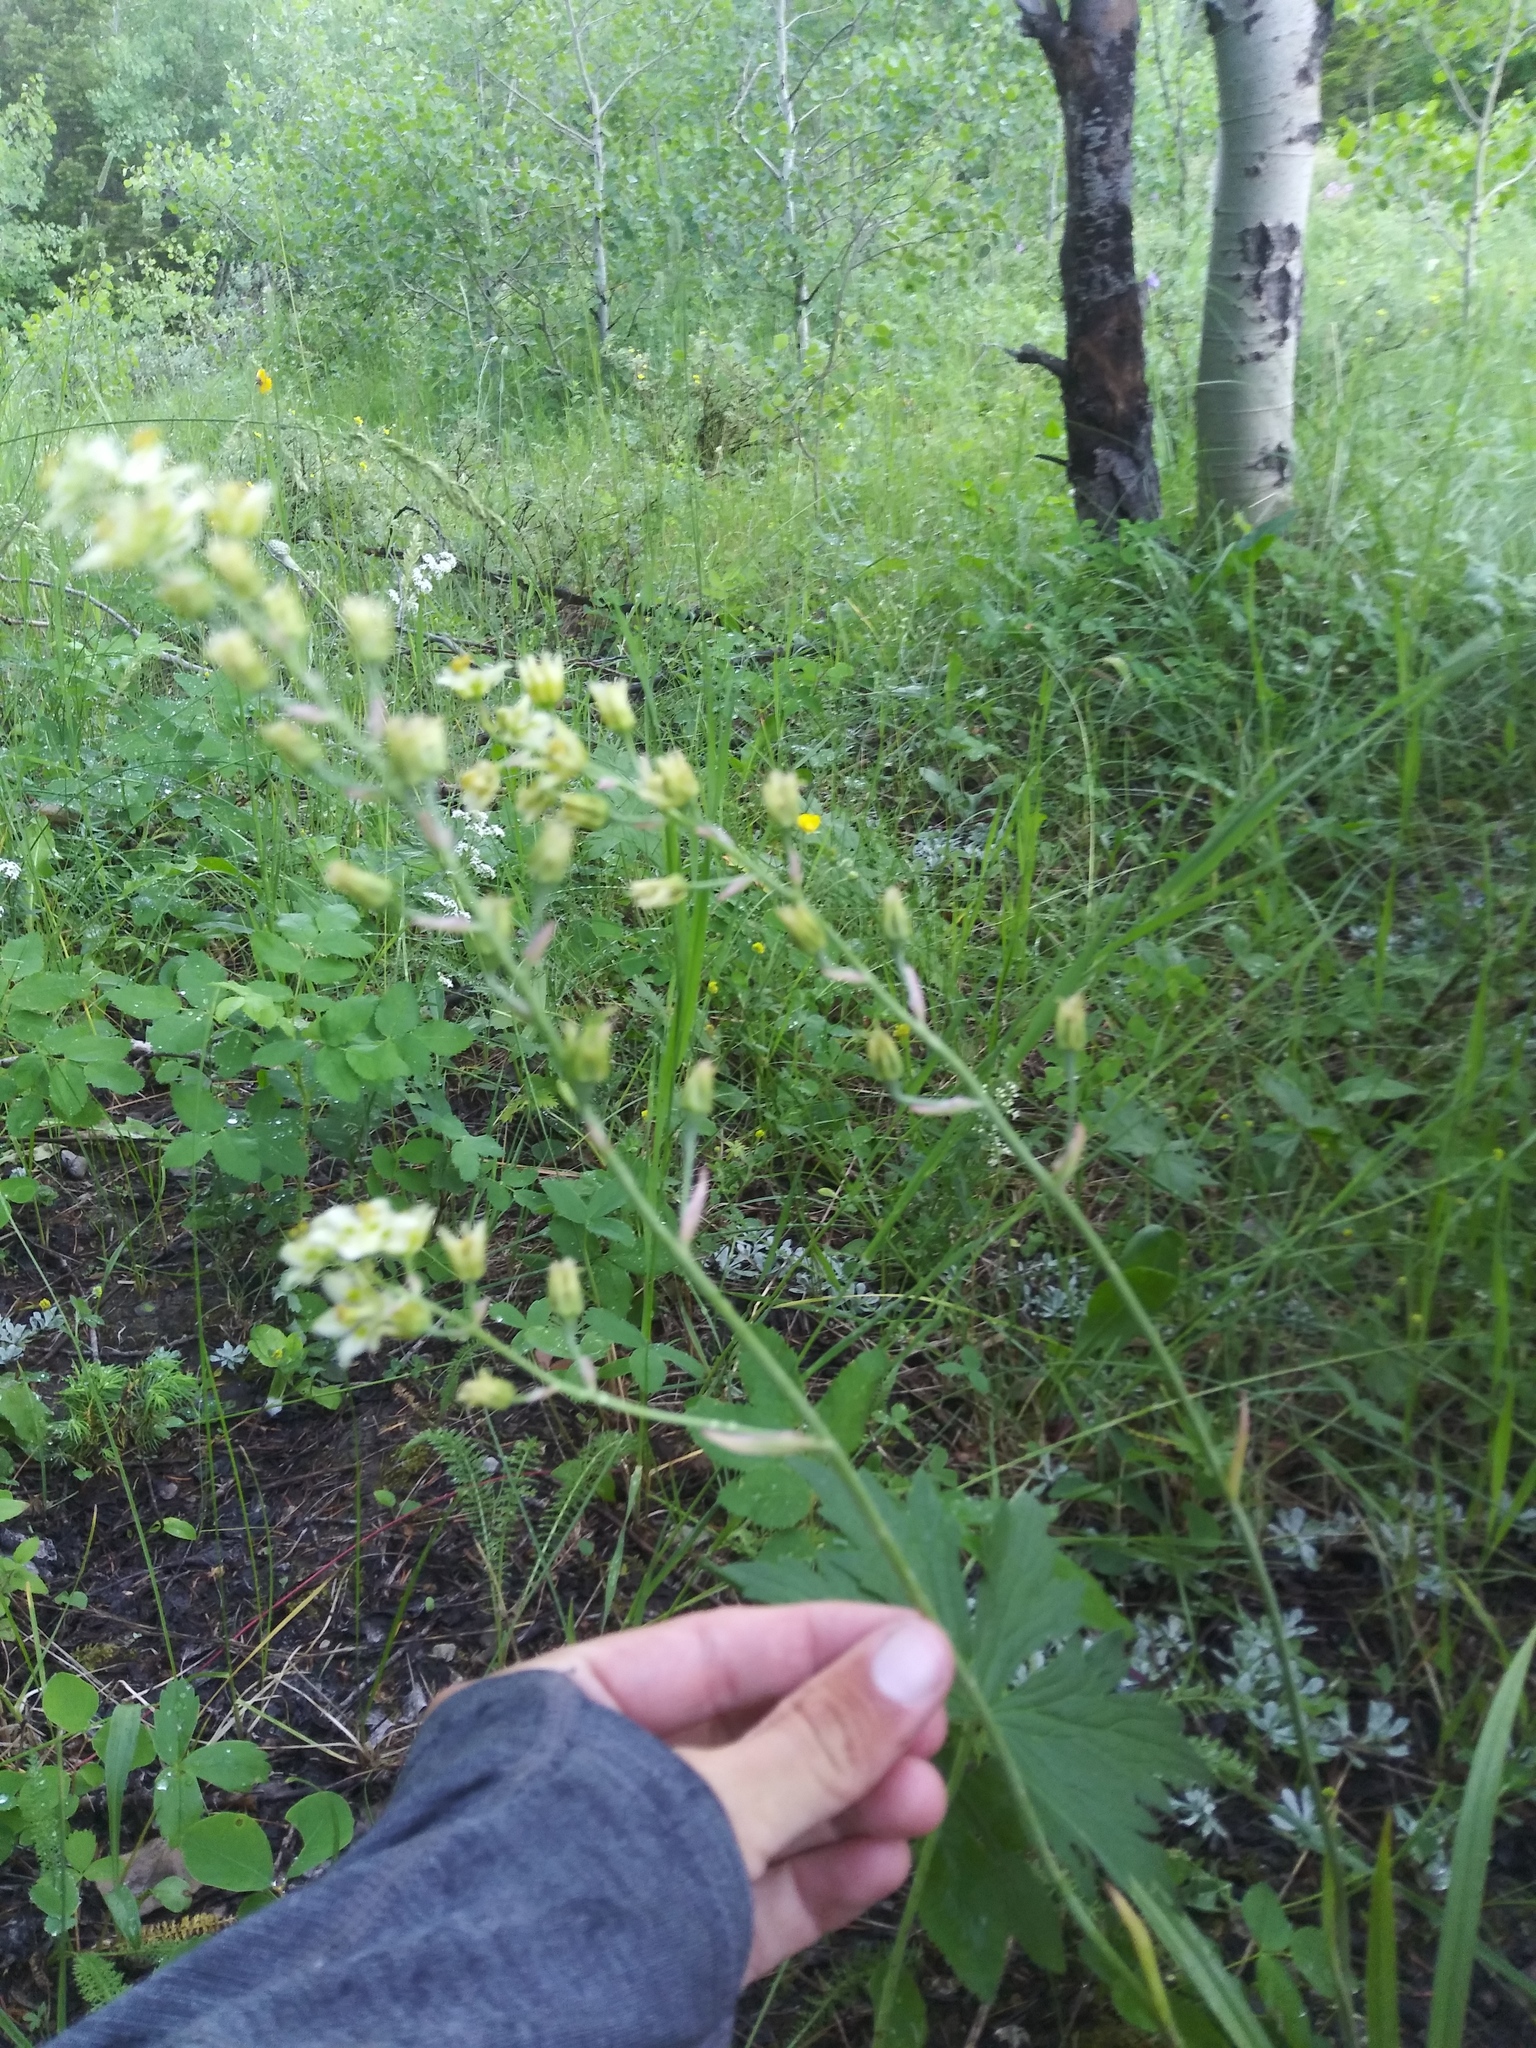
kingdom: Plantae
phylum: Tracheophyta
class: Liliopsida
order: Liliales
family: Melanthiaceae
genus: Anticlea
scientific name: Anticlea elegans
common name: Mountain death camas
